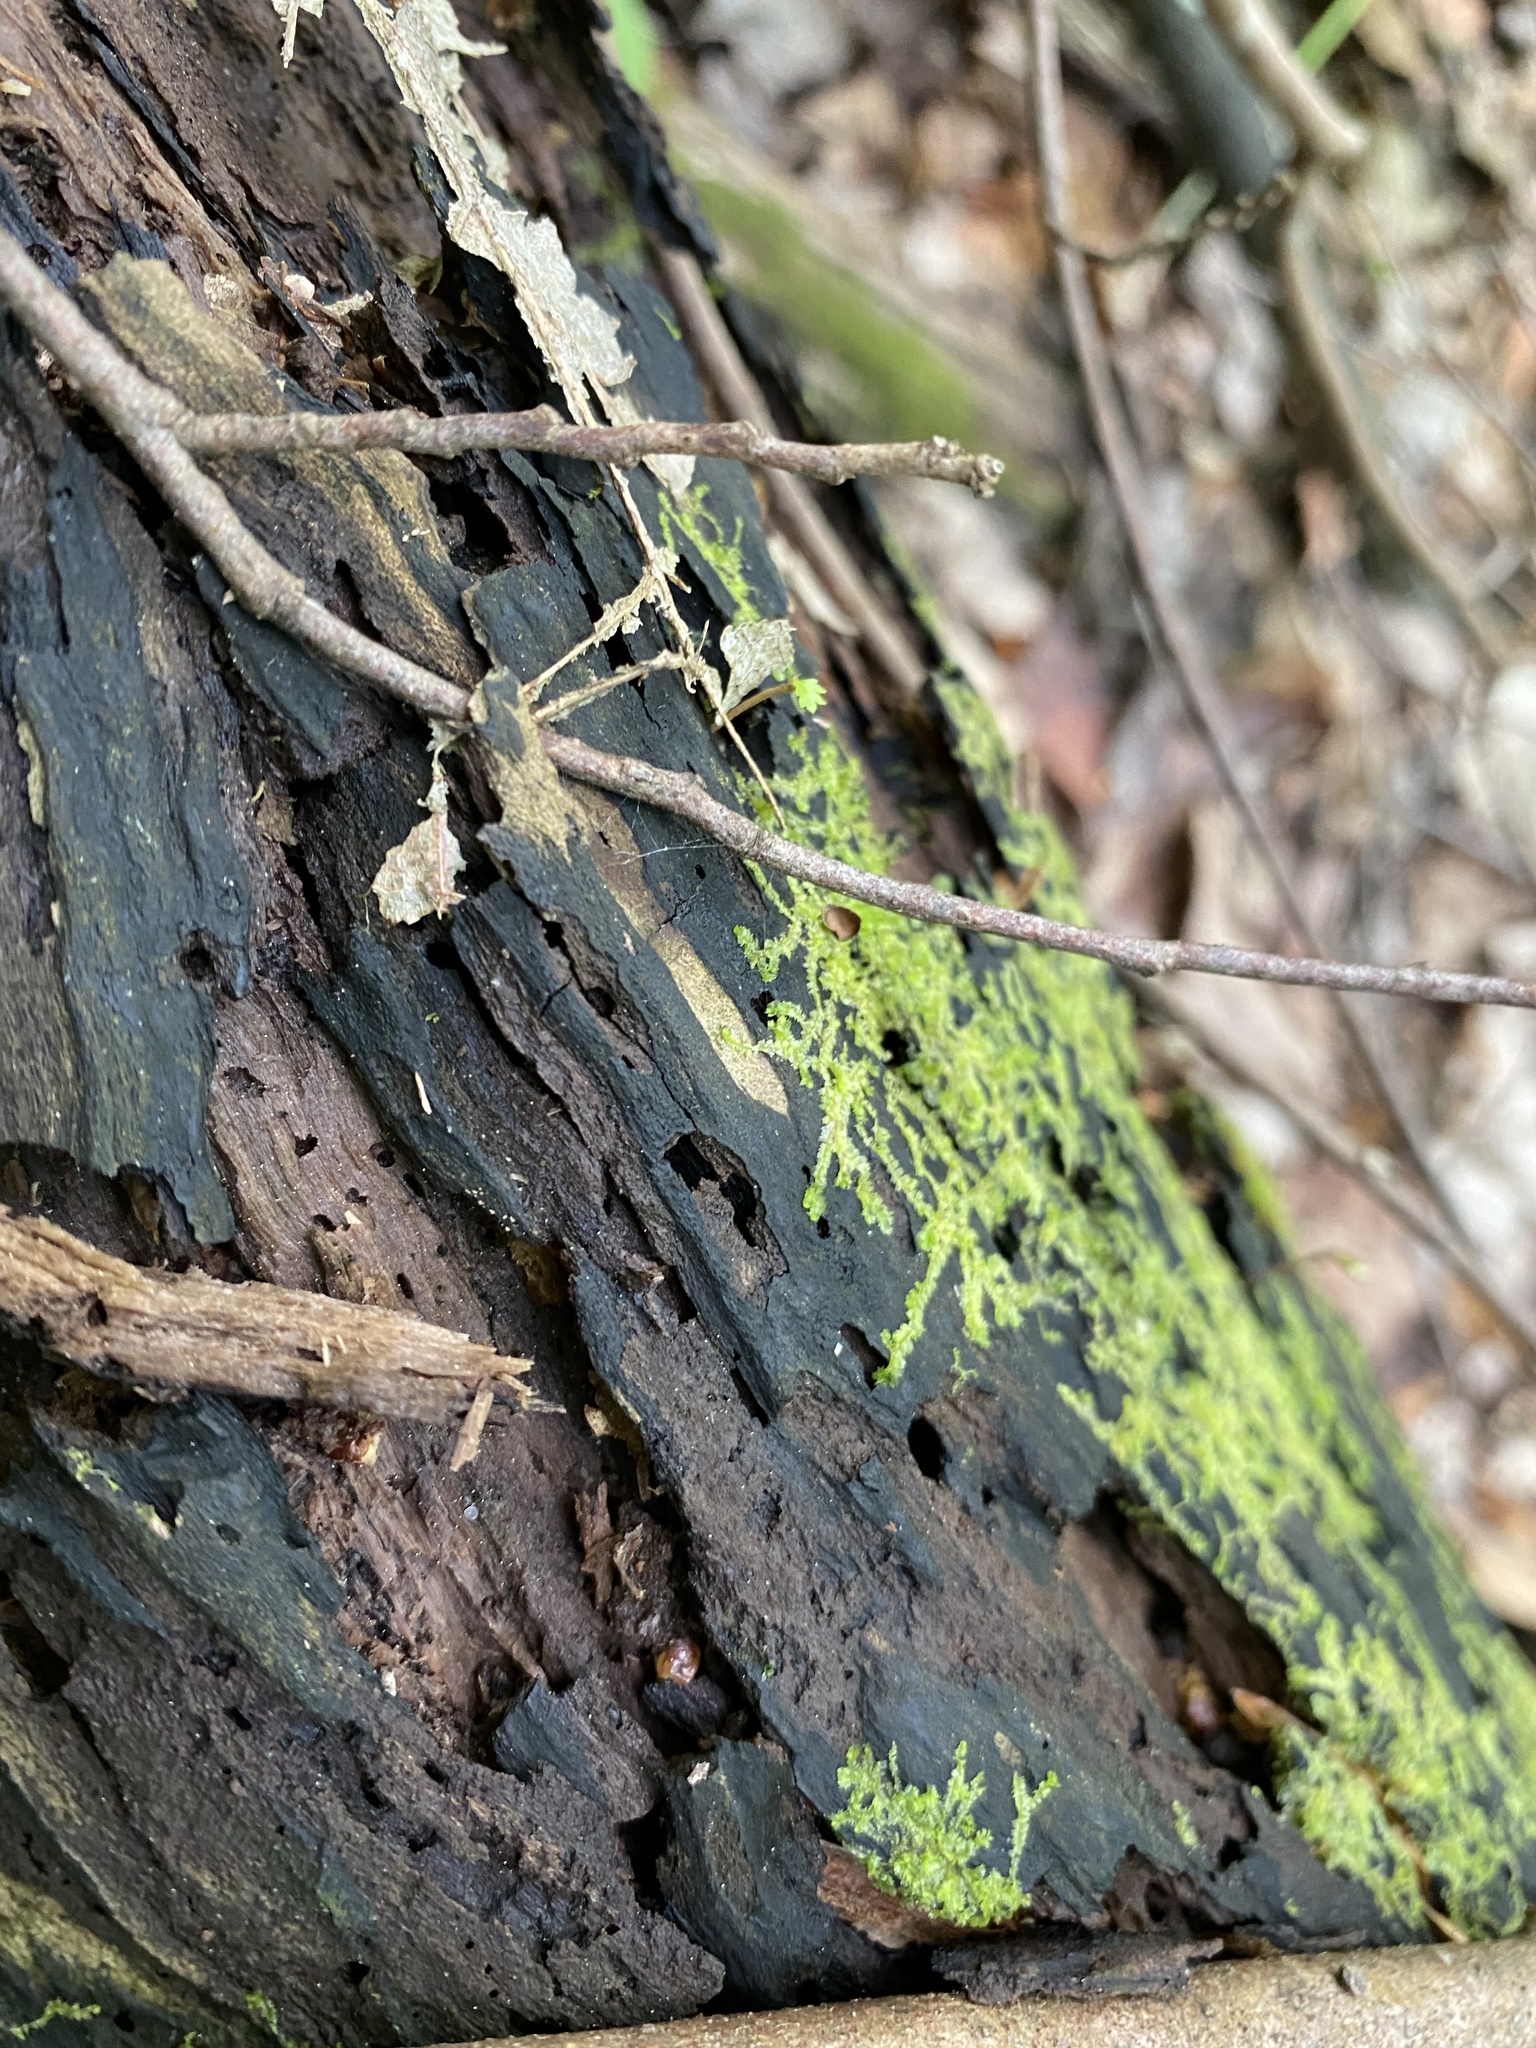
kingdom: Plantae
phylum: Marchantiophyta
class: Jungermanniopsida
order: Jungermanniales
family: Lophocoleaceae
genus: Lophocolea
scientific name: Lophocolea heterophylla
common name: Variable-leaved crestwort
